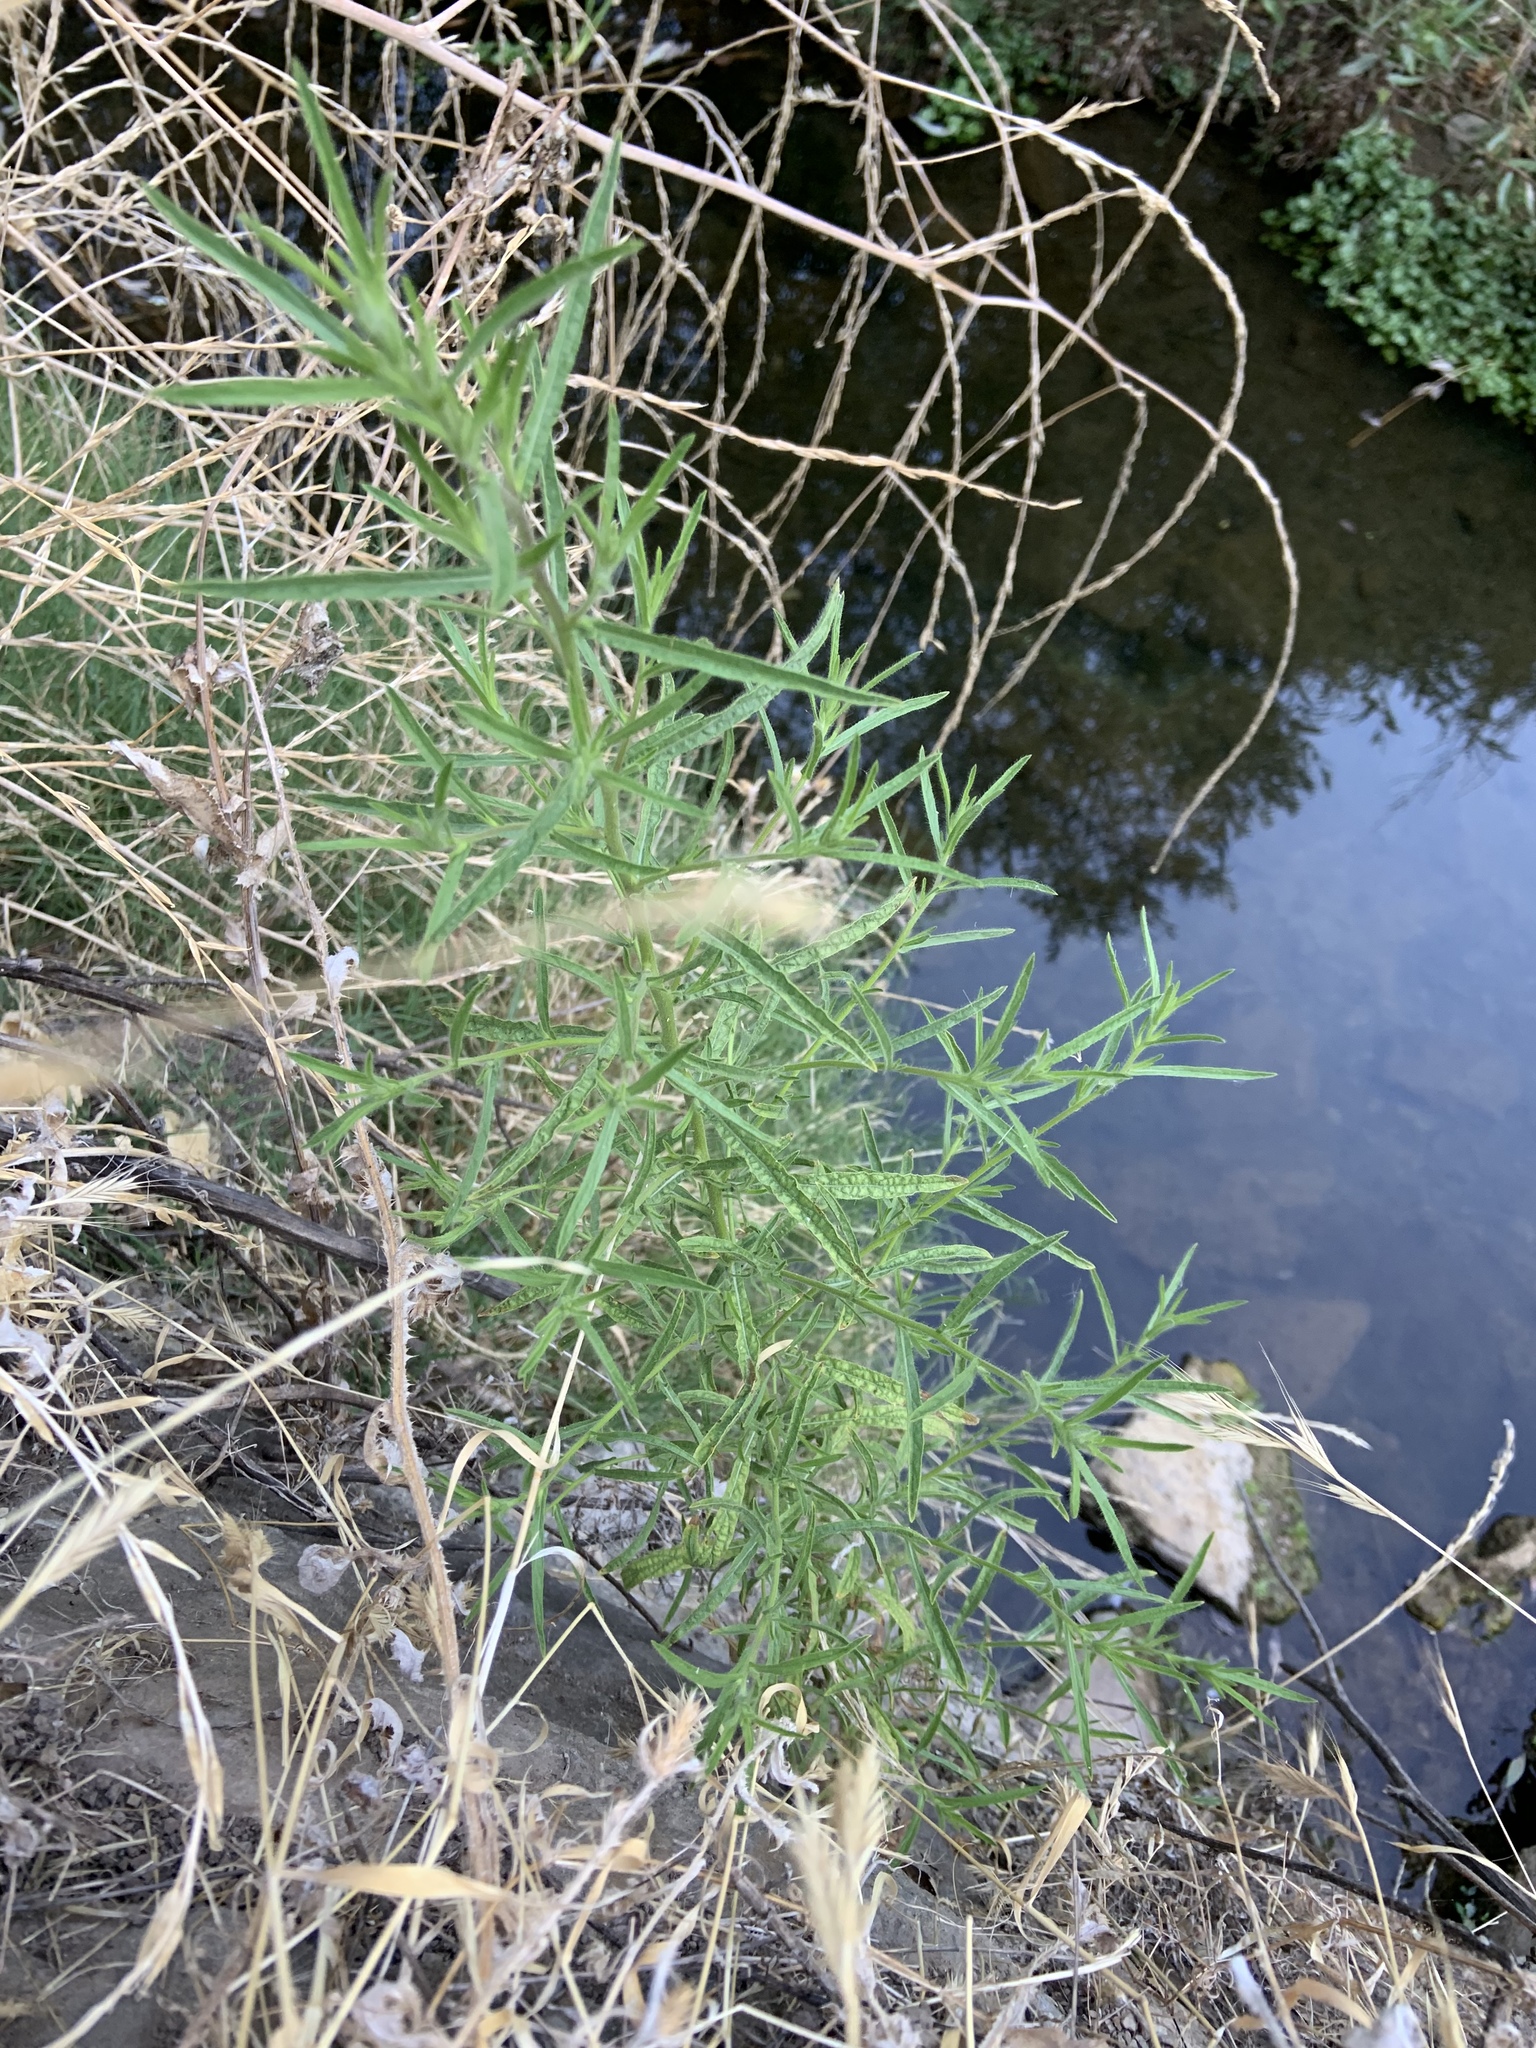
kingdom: Plantae
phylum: Tracheophyta
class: Magnoliopsida
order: Asterales
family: Asteraceae
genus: Dittrichia
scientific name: Dittrichia graveolens
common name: Stinking fleabane
